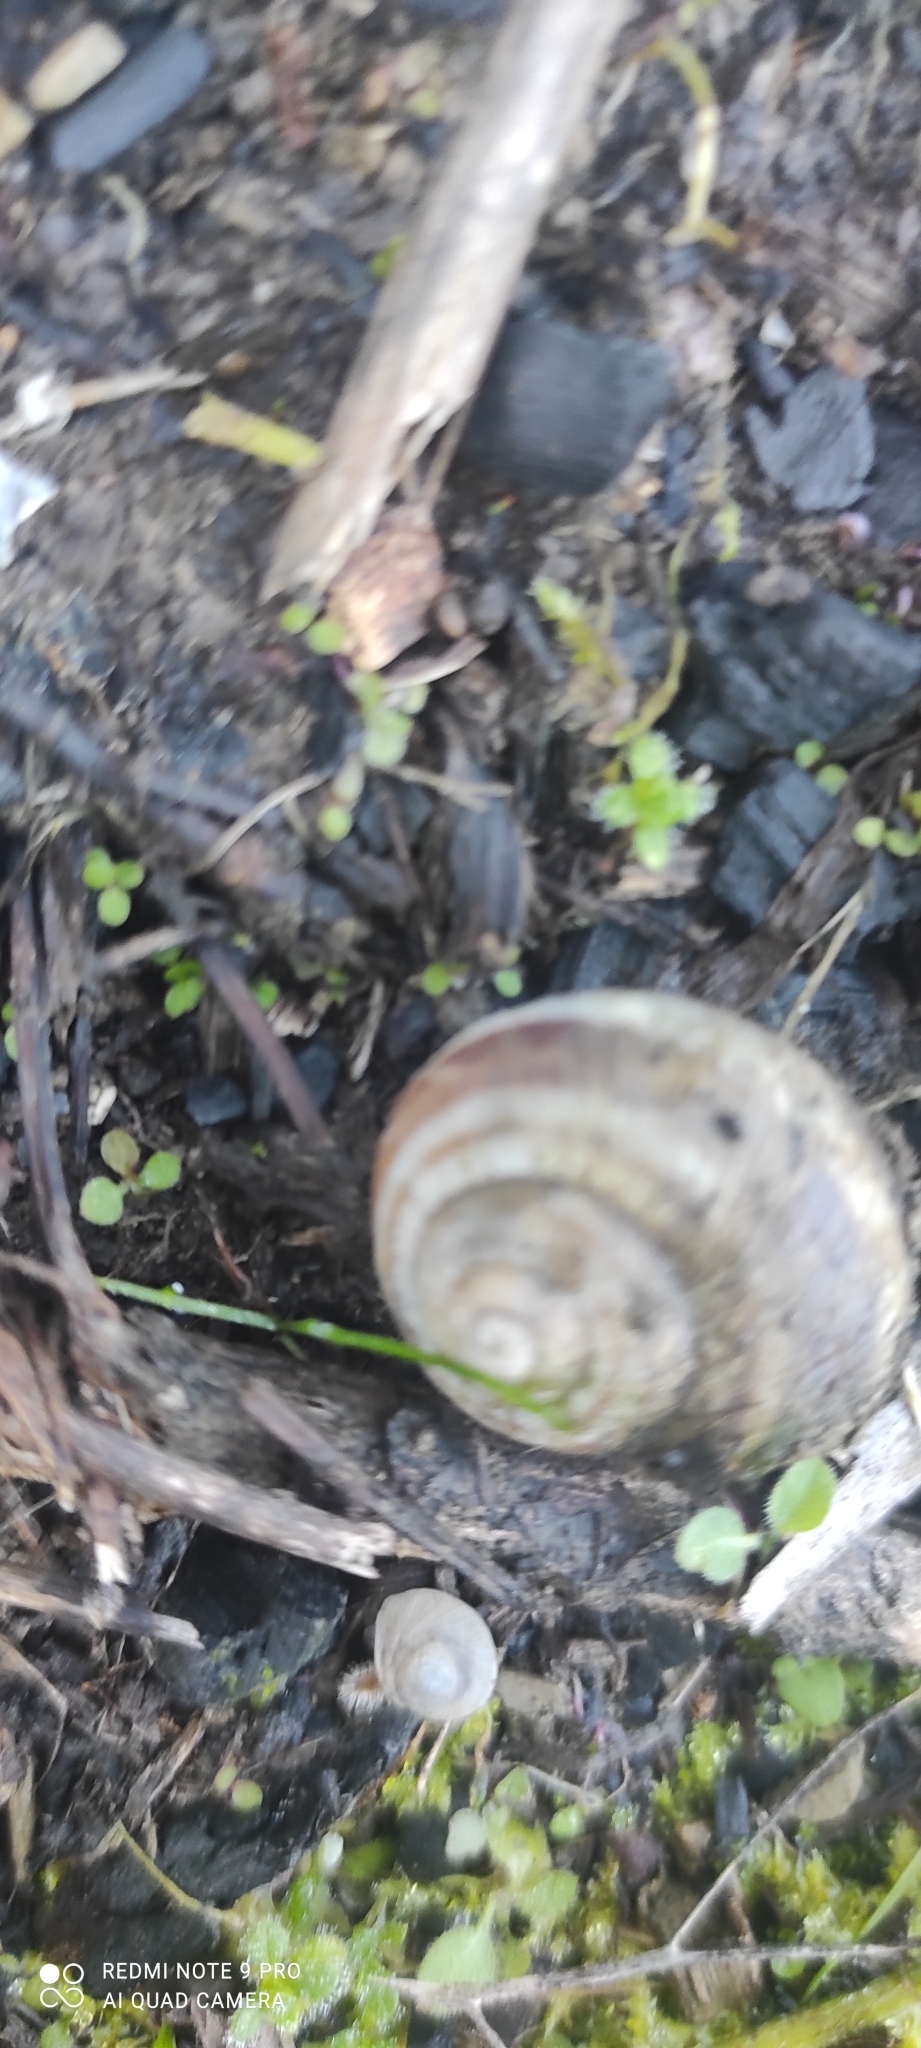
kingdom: Animalia
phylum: Mollusca
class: Gastropoda
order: Stylommatophora
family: Helicidae
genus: Helix
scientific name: Helix straminea
